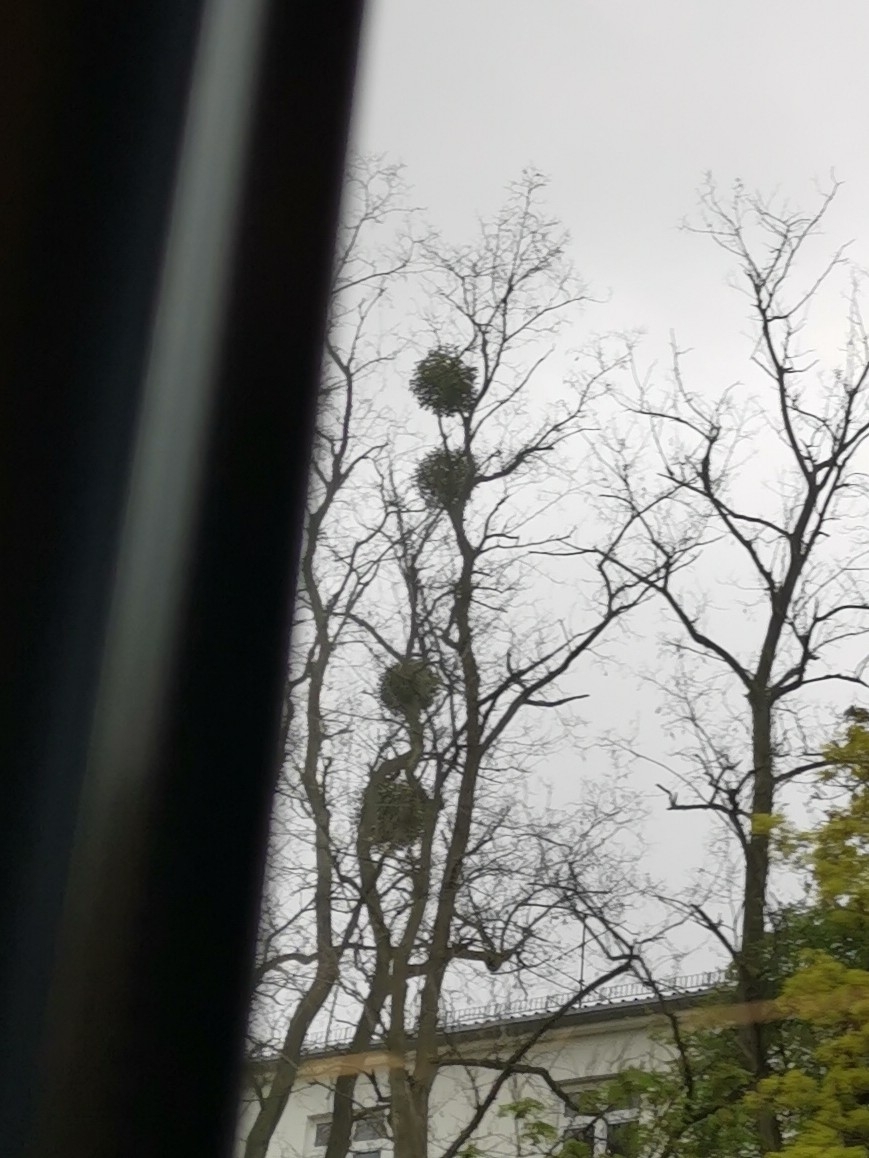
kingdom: Plantae
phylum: Tracheophyta
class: Magnoliopsida
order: Santalales
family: Viscaceae
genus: Viscum
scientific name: Viscum album
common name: Mistletoe
